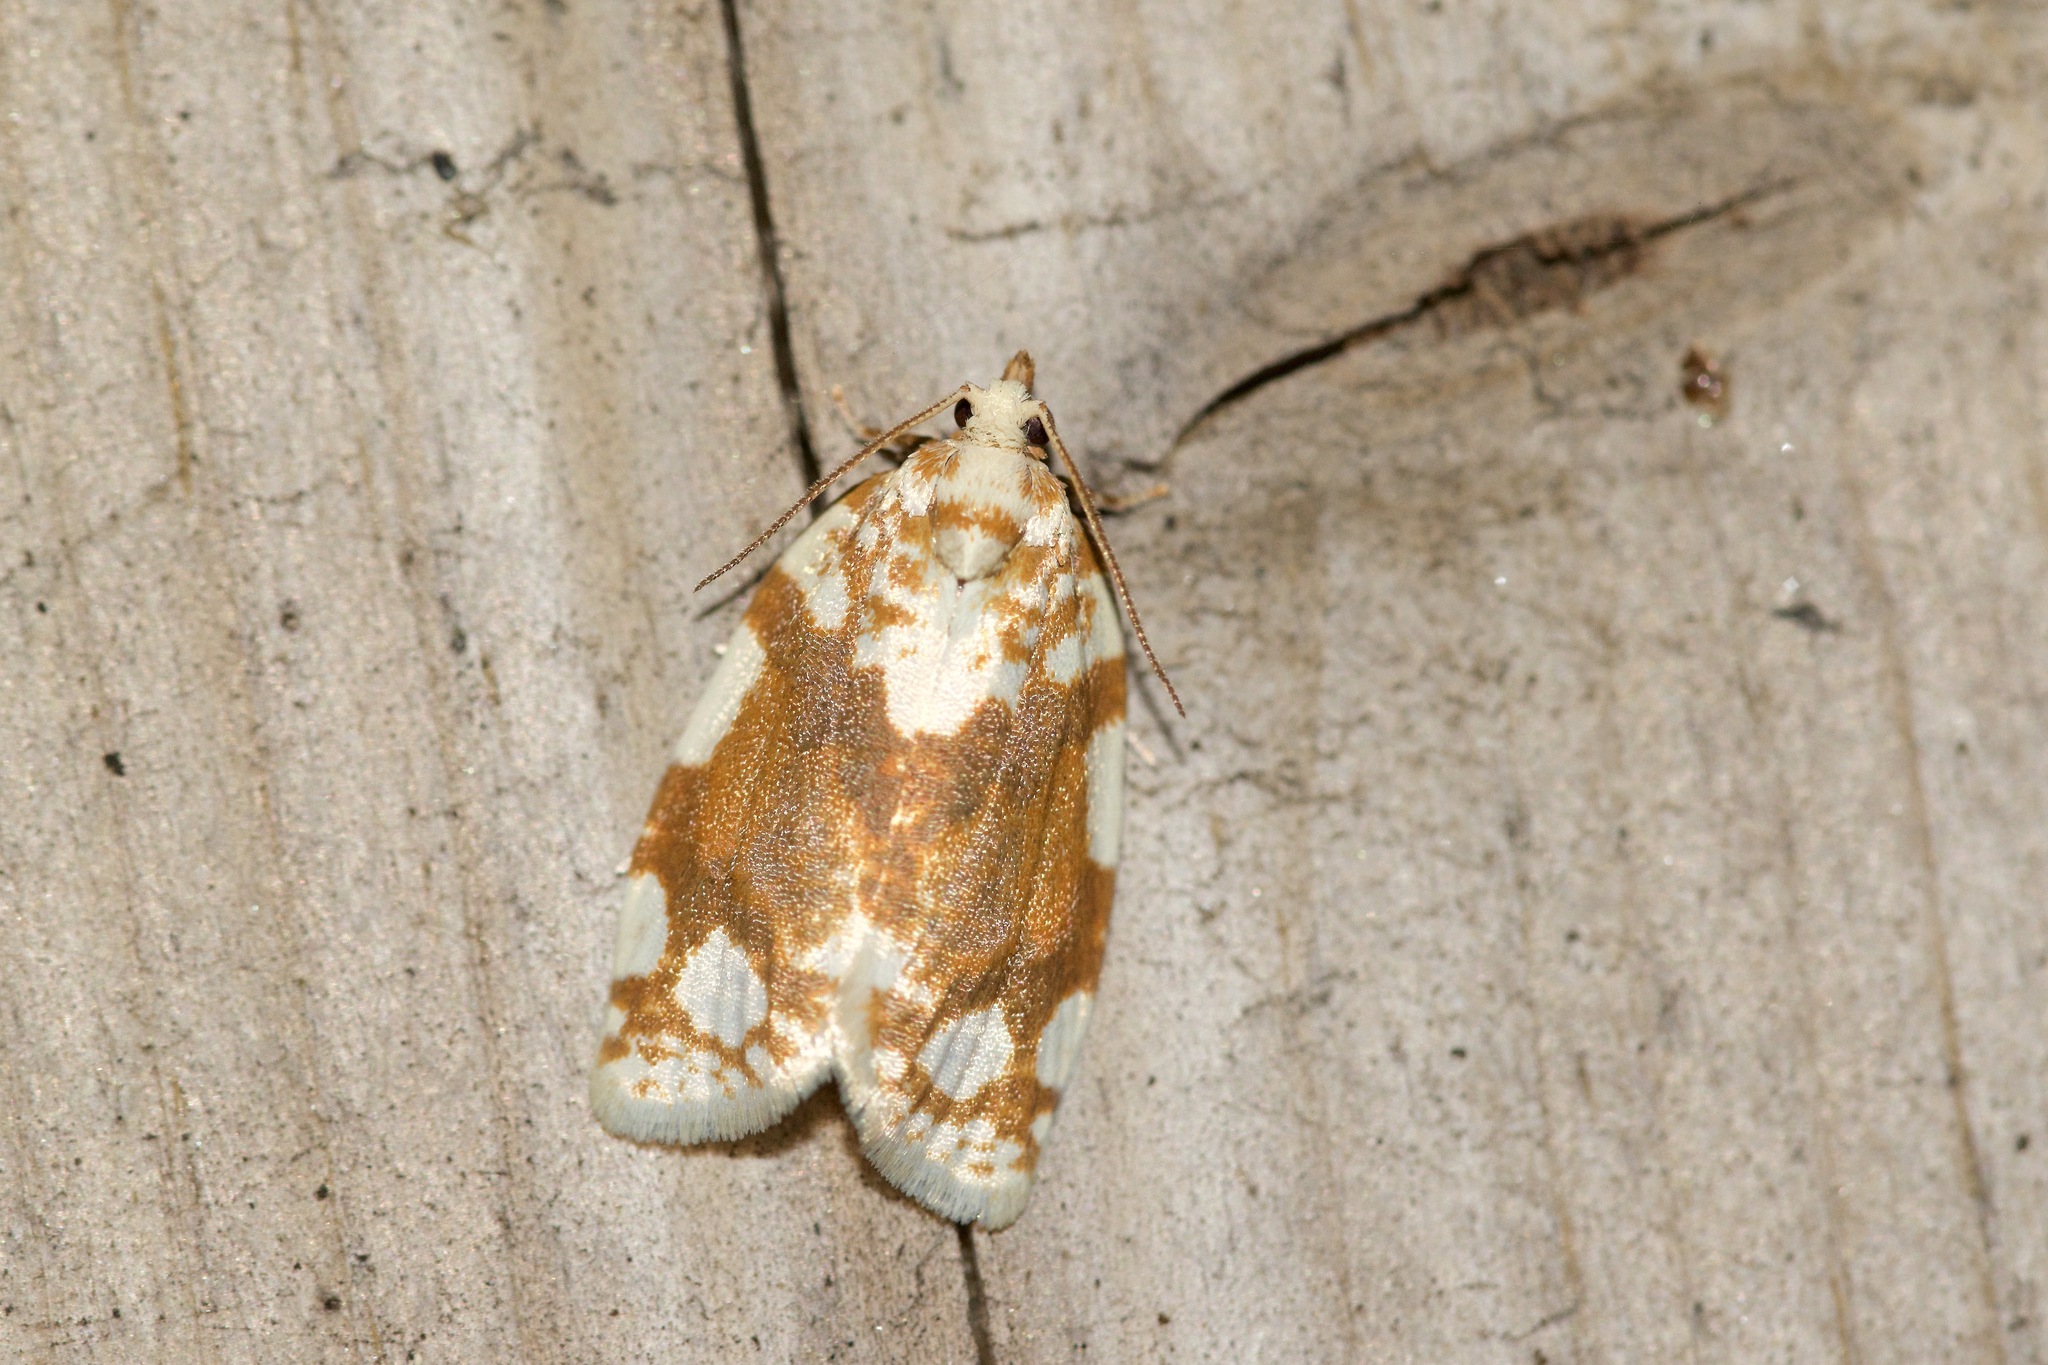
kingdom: Animalia
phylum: Arthropoda
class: Insecta
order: Lepidoptera
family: Tortricidae
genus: Argyrotaenia
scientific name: Argyrotaenia alisellana
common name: White-spotted leafroller moth
